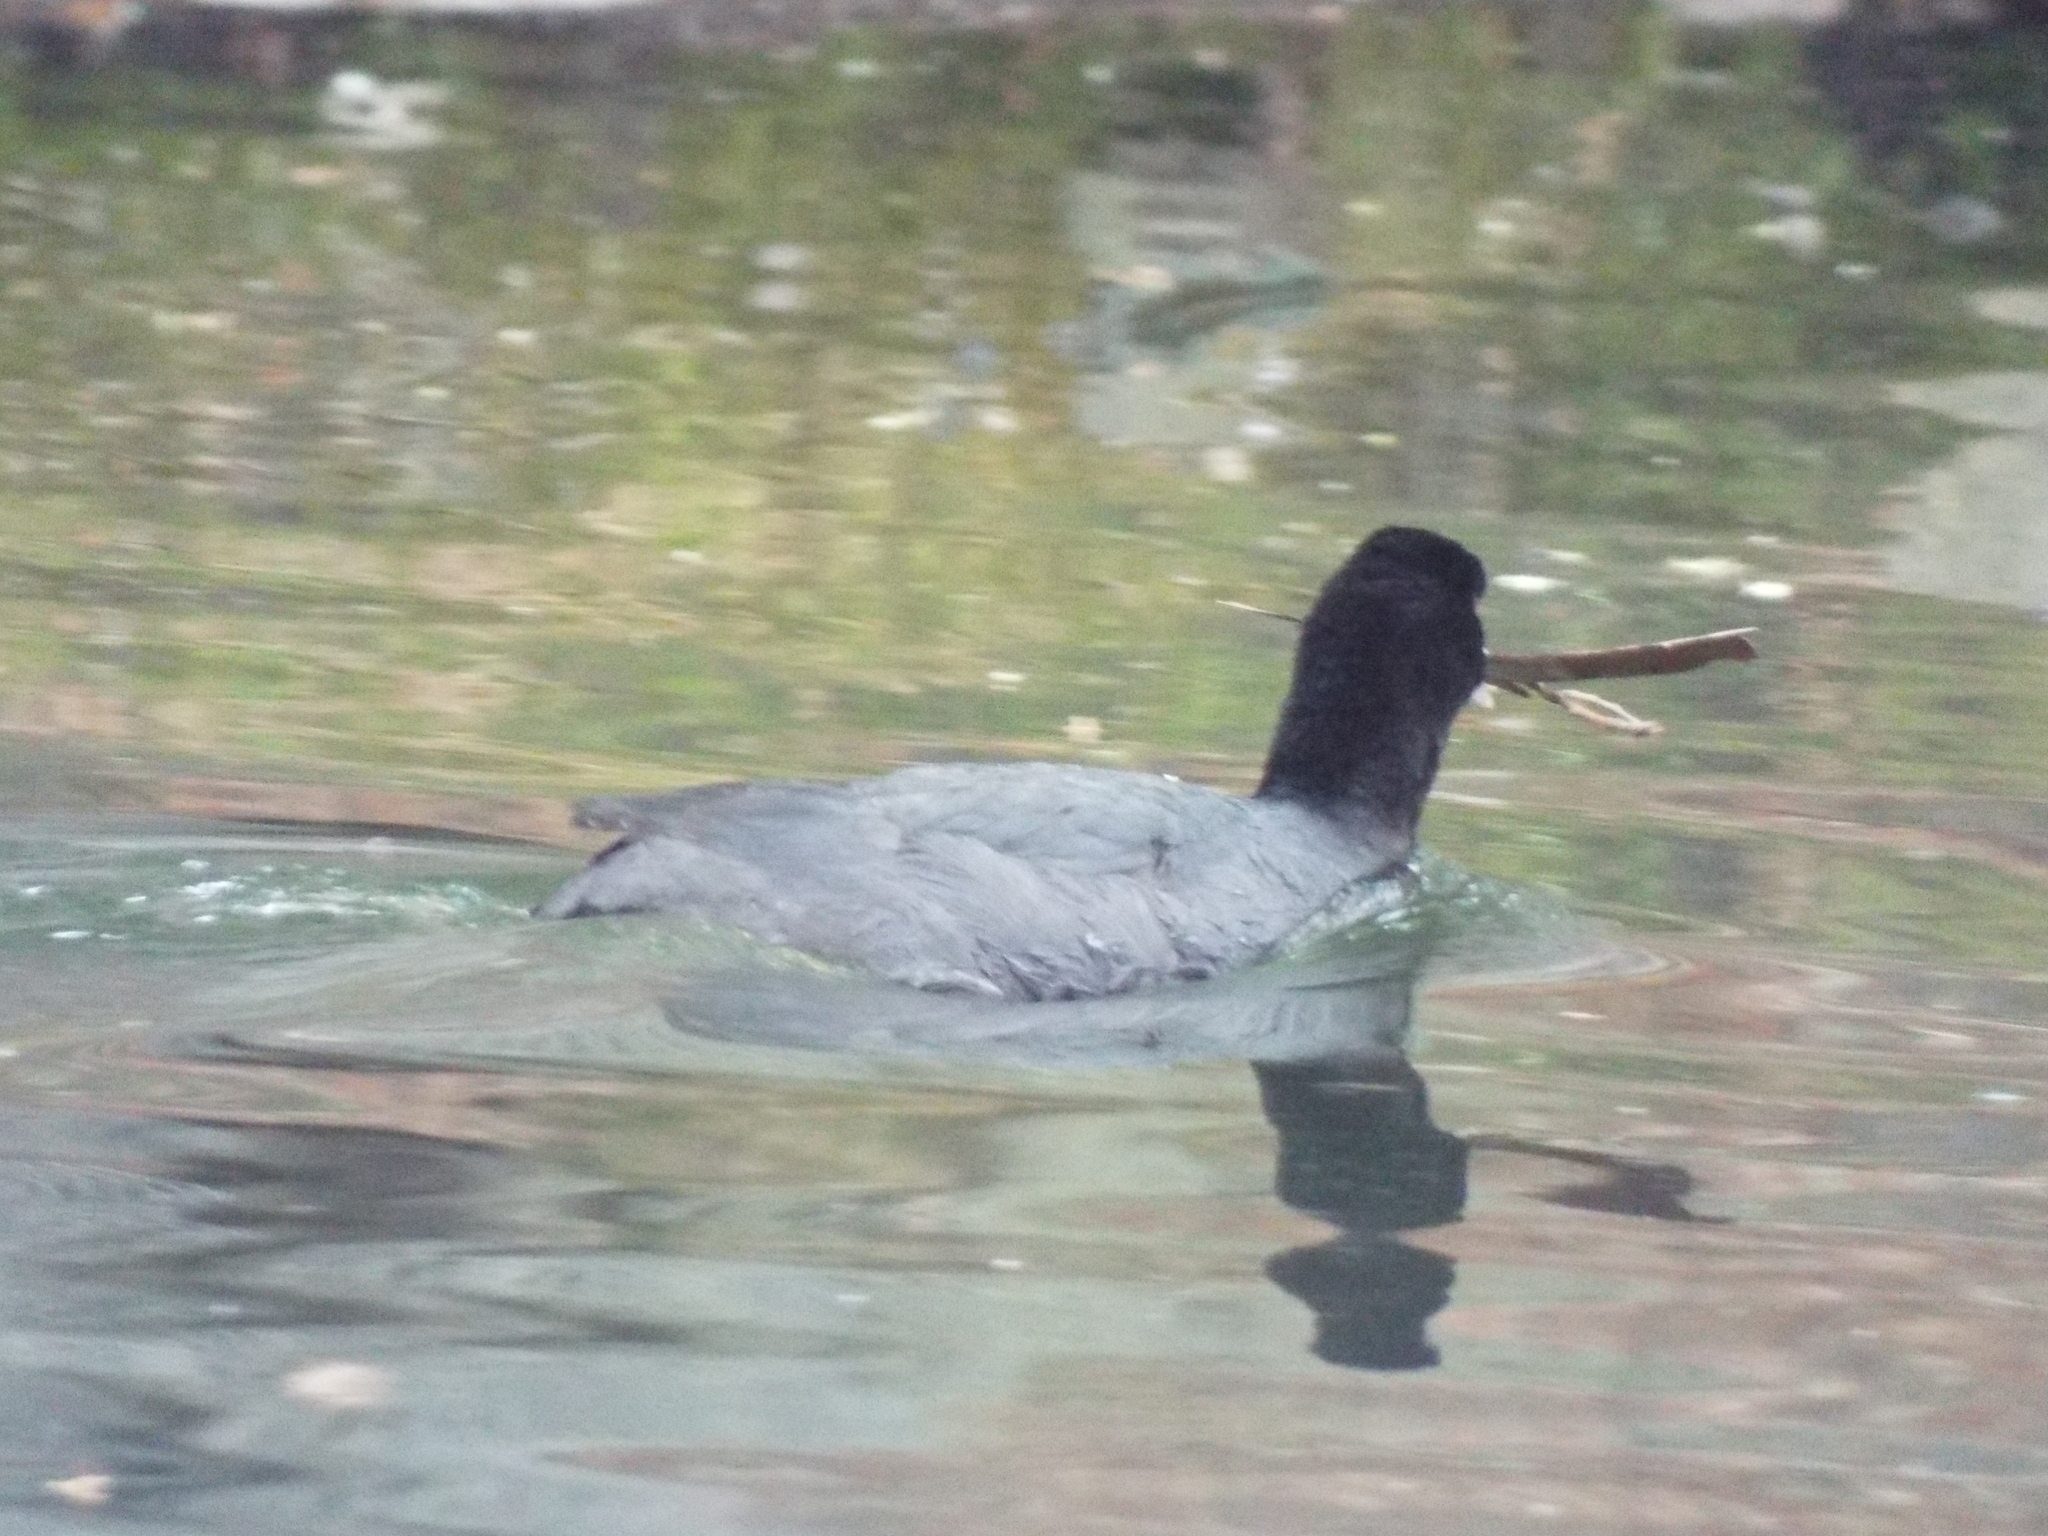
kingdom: Animalia
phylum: Chordata
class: Aves
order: Gruiformes
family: Rallidae
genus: Fulica
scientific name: Fulica atra
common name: Eurasian coot
